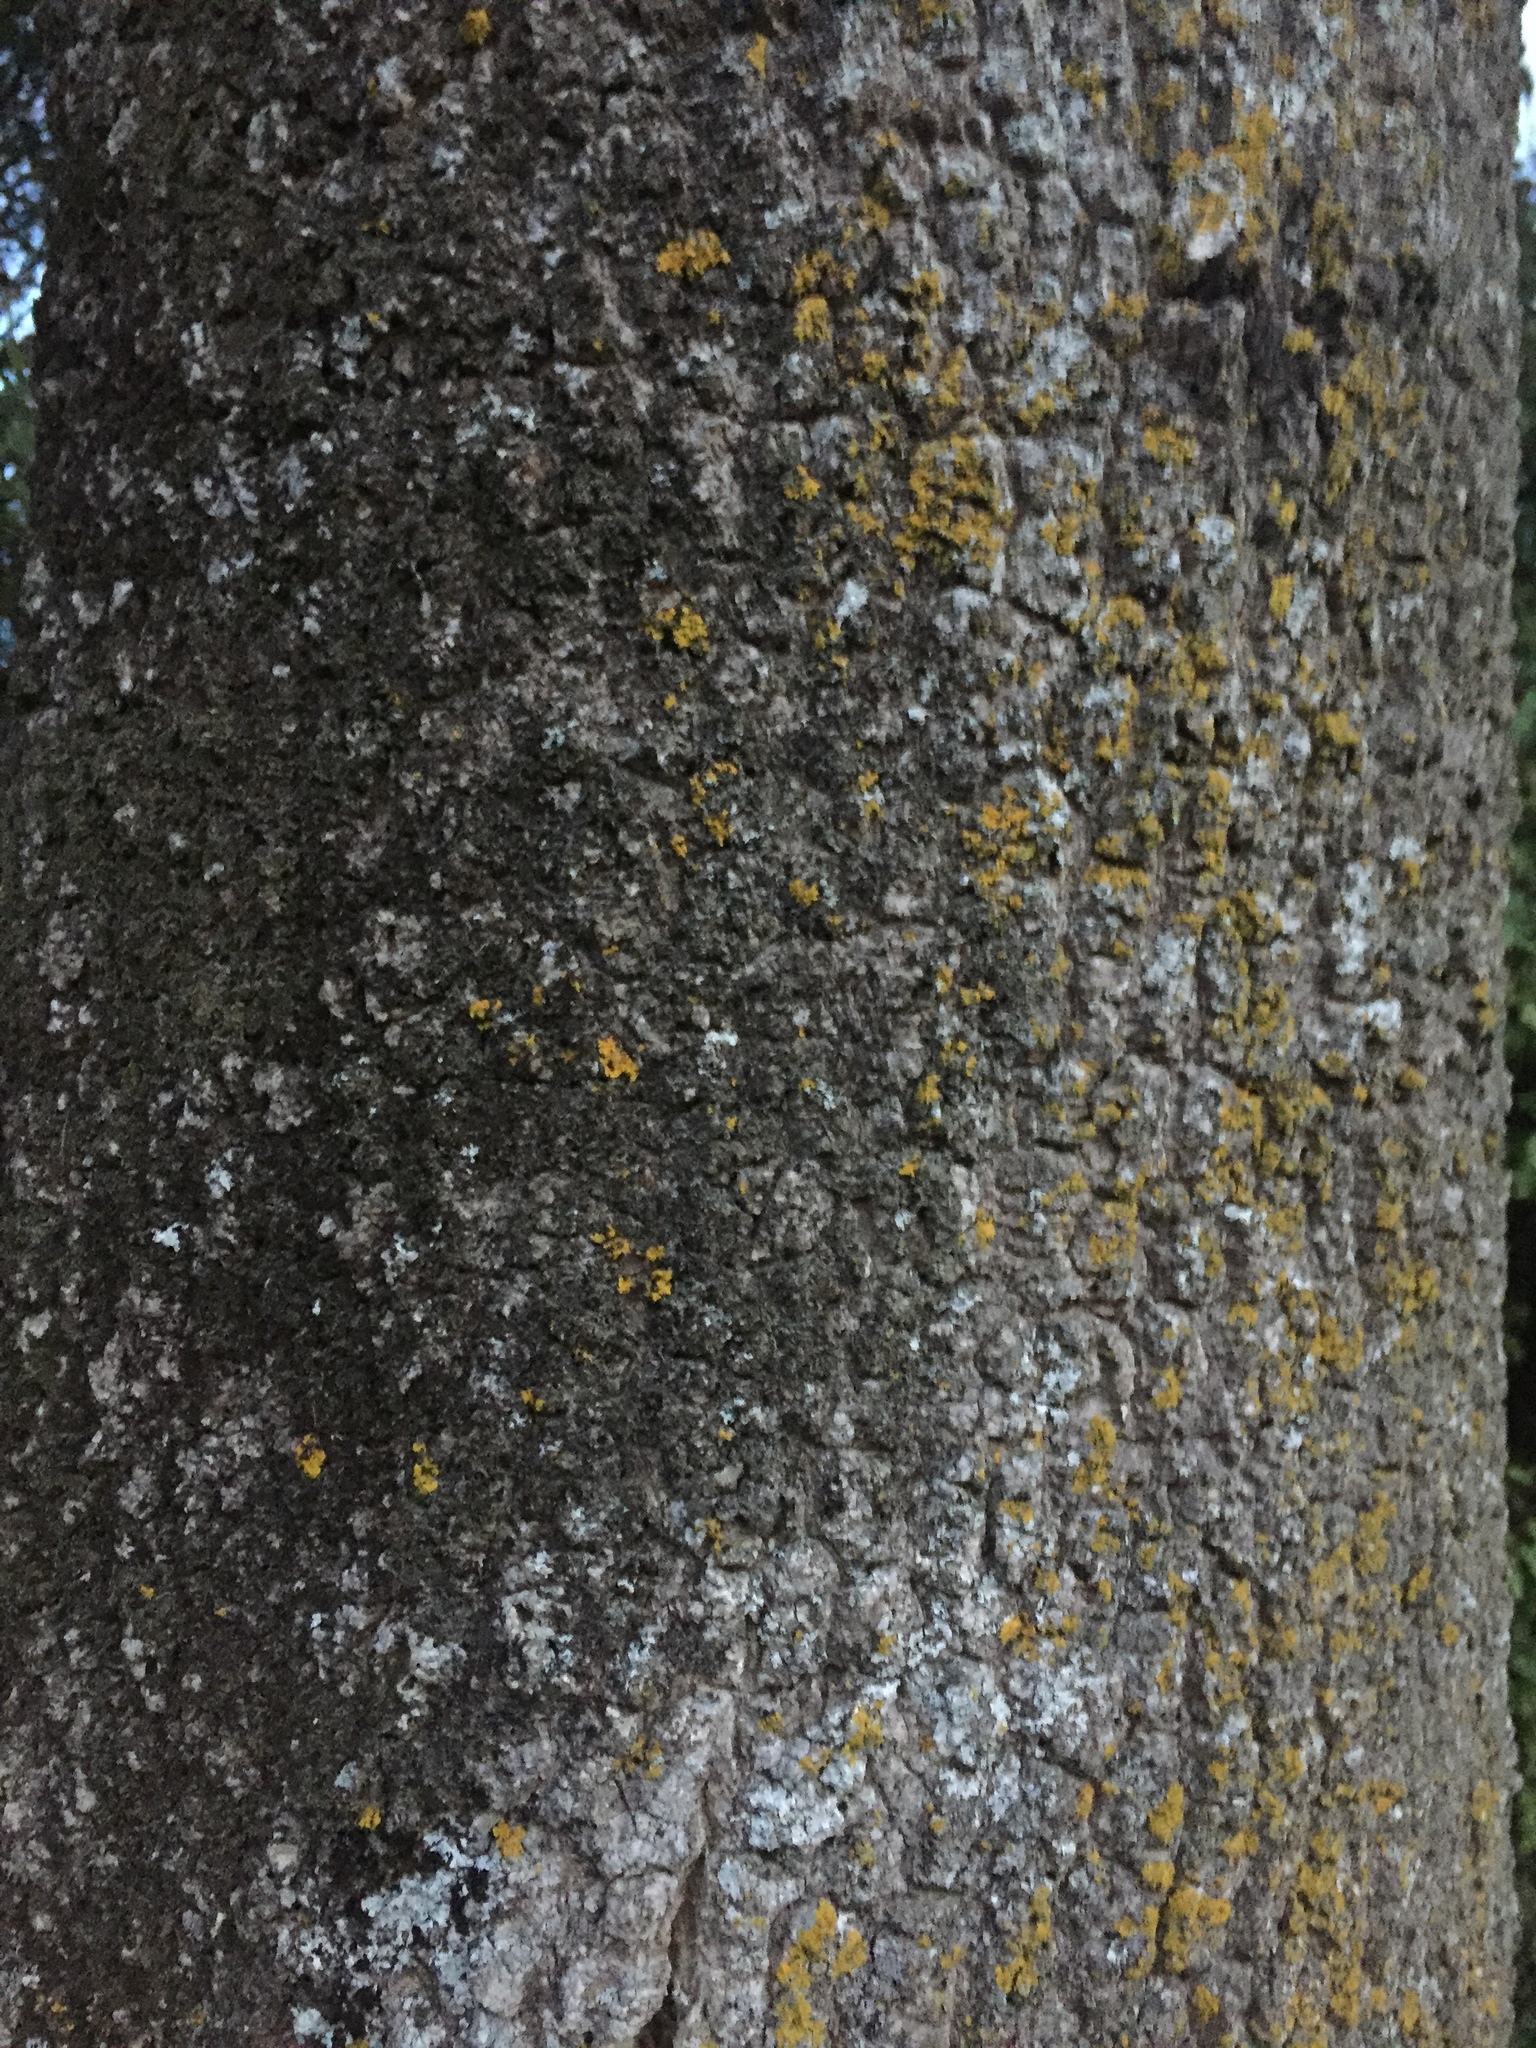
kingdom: Plantae
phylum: Tracheophyta
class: Magnoliopsida
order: Apiales
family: Pennantiaceae
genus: Pennantia
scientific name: Pennantia corymbosa
